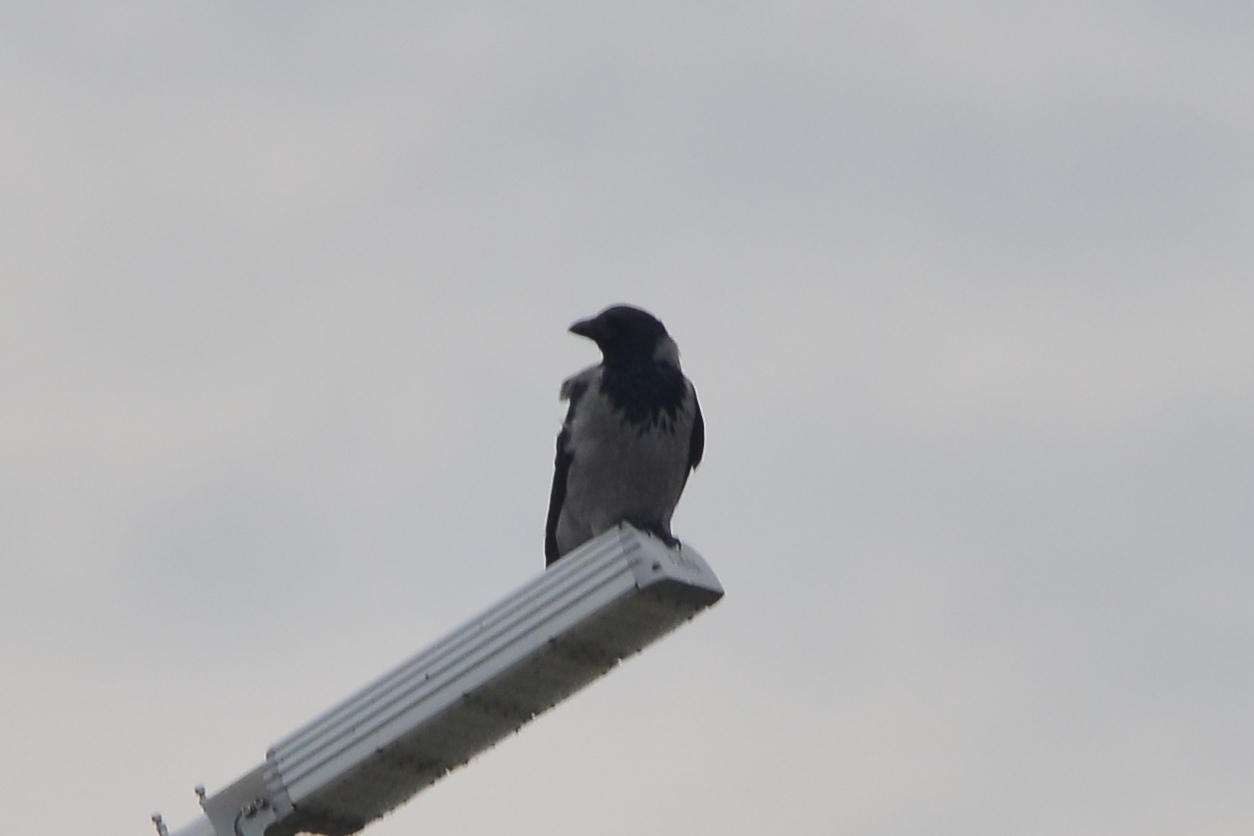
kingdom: Animalia
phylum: Chordata
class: Aves
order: Passeriformes
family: Corvidae
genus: Corvus
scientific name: Corvus cornix
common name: Hooded crow
